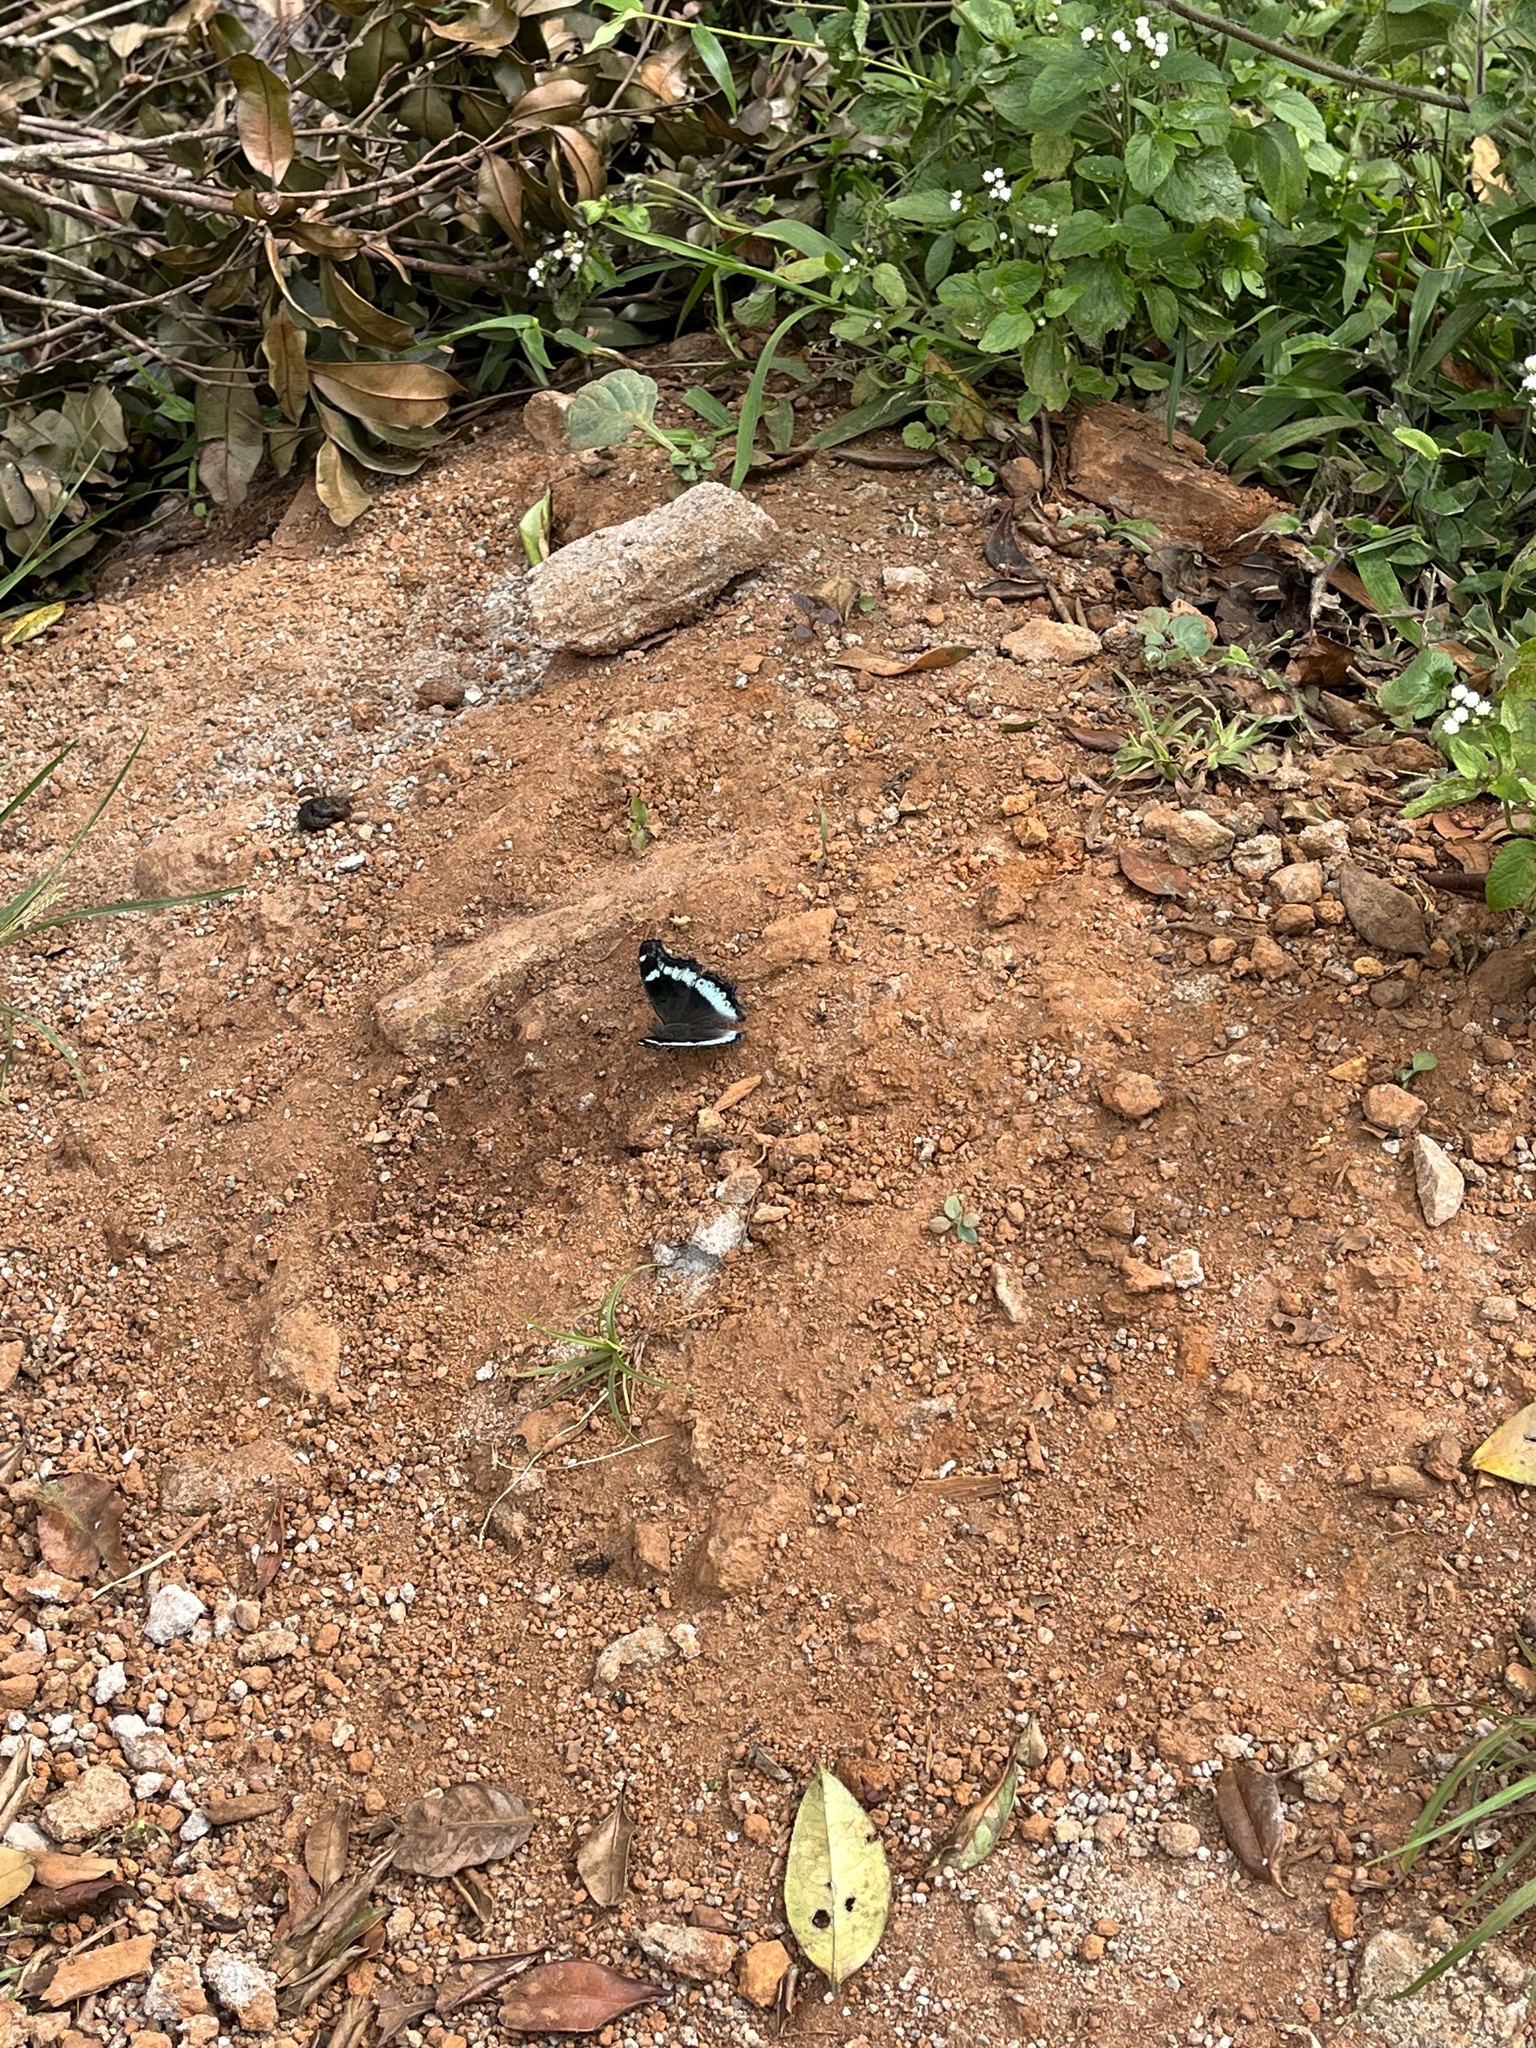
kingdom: Animalia
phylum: Arthropoda
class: Insecta
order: Lepidoptera
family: Nymphalidae
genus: Vanessa
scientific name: Vanessa Kaniska canace
